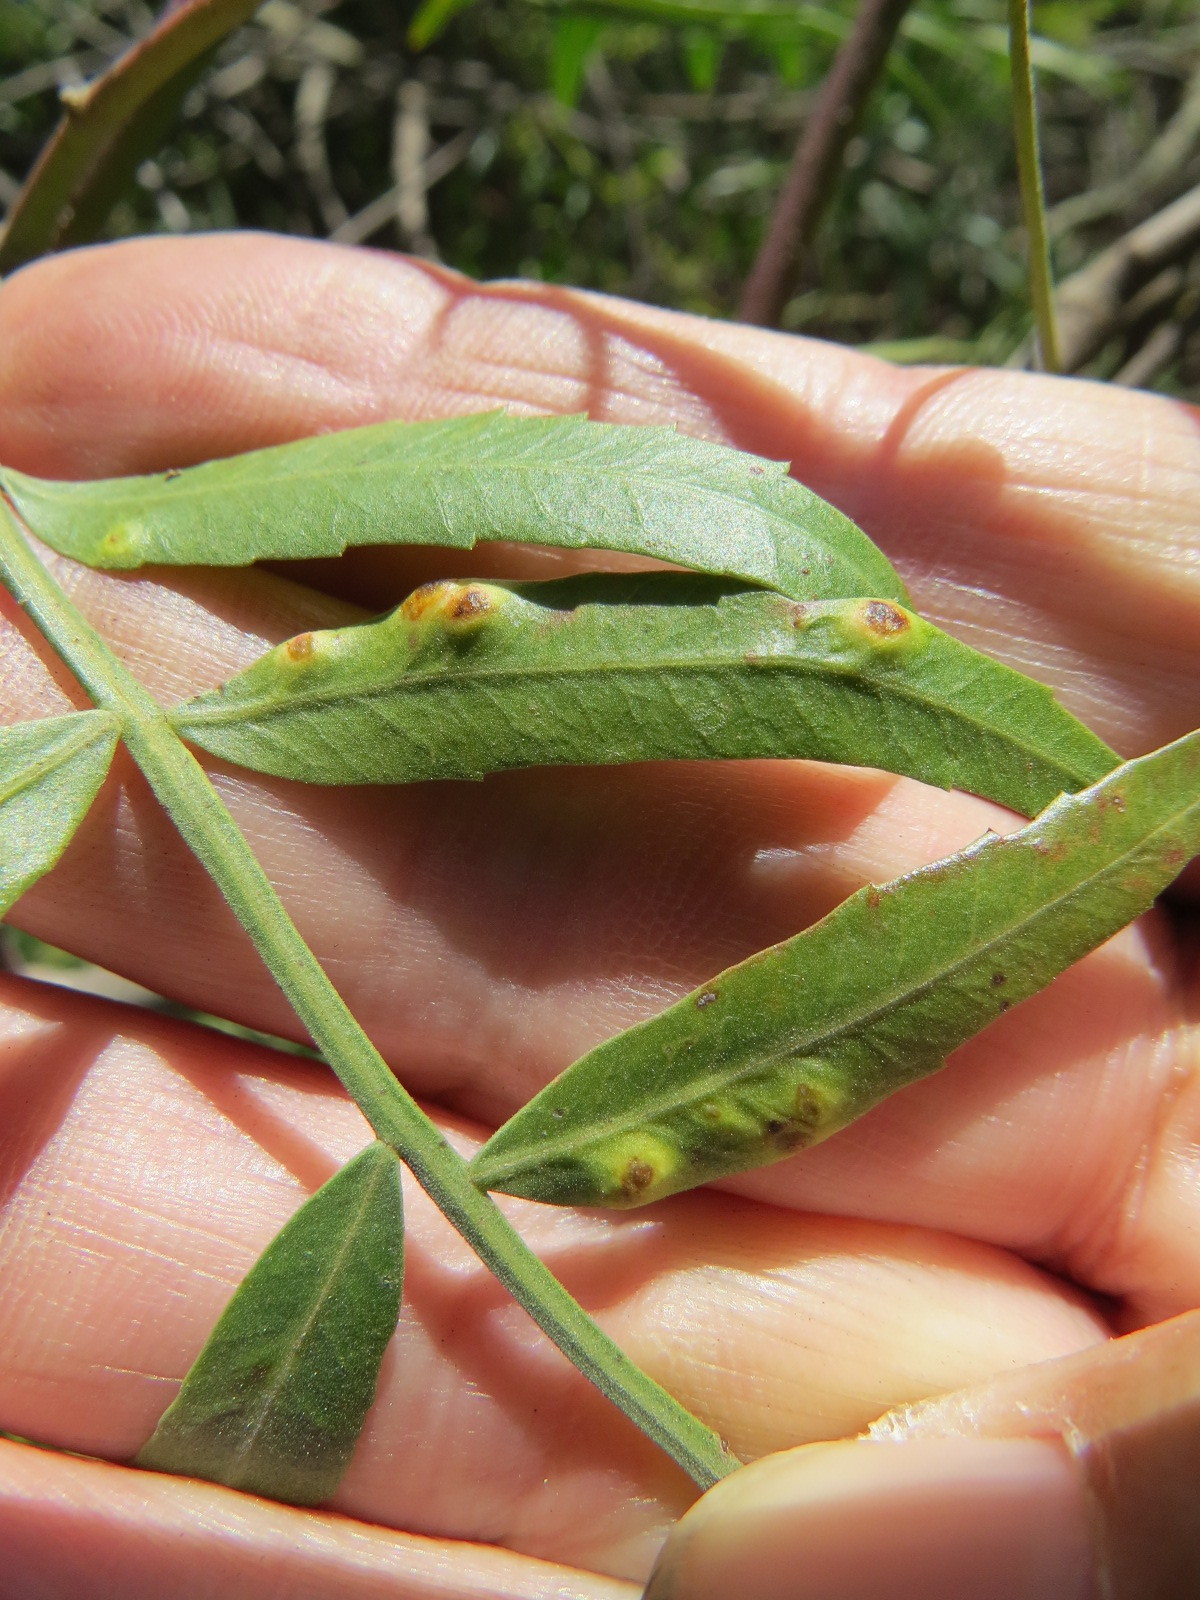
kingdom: Plantae
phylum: Tracheophyta
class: Magnoliopsida
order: Sapindales
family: Anacardiaceae
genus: Schinus
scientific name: Schinus molle
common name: Peruvian peppertree
